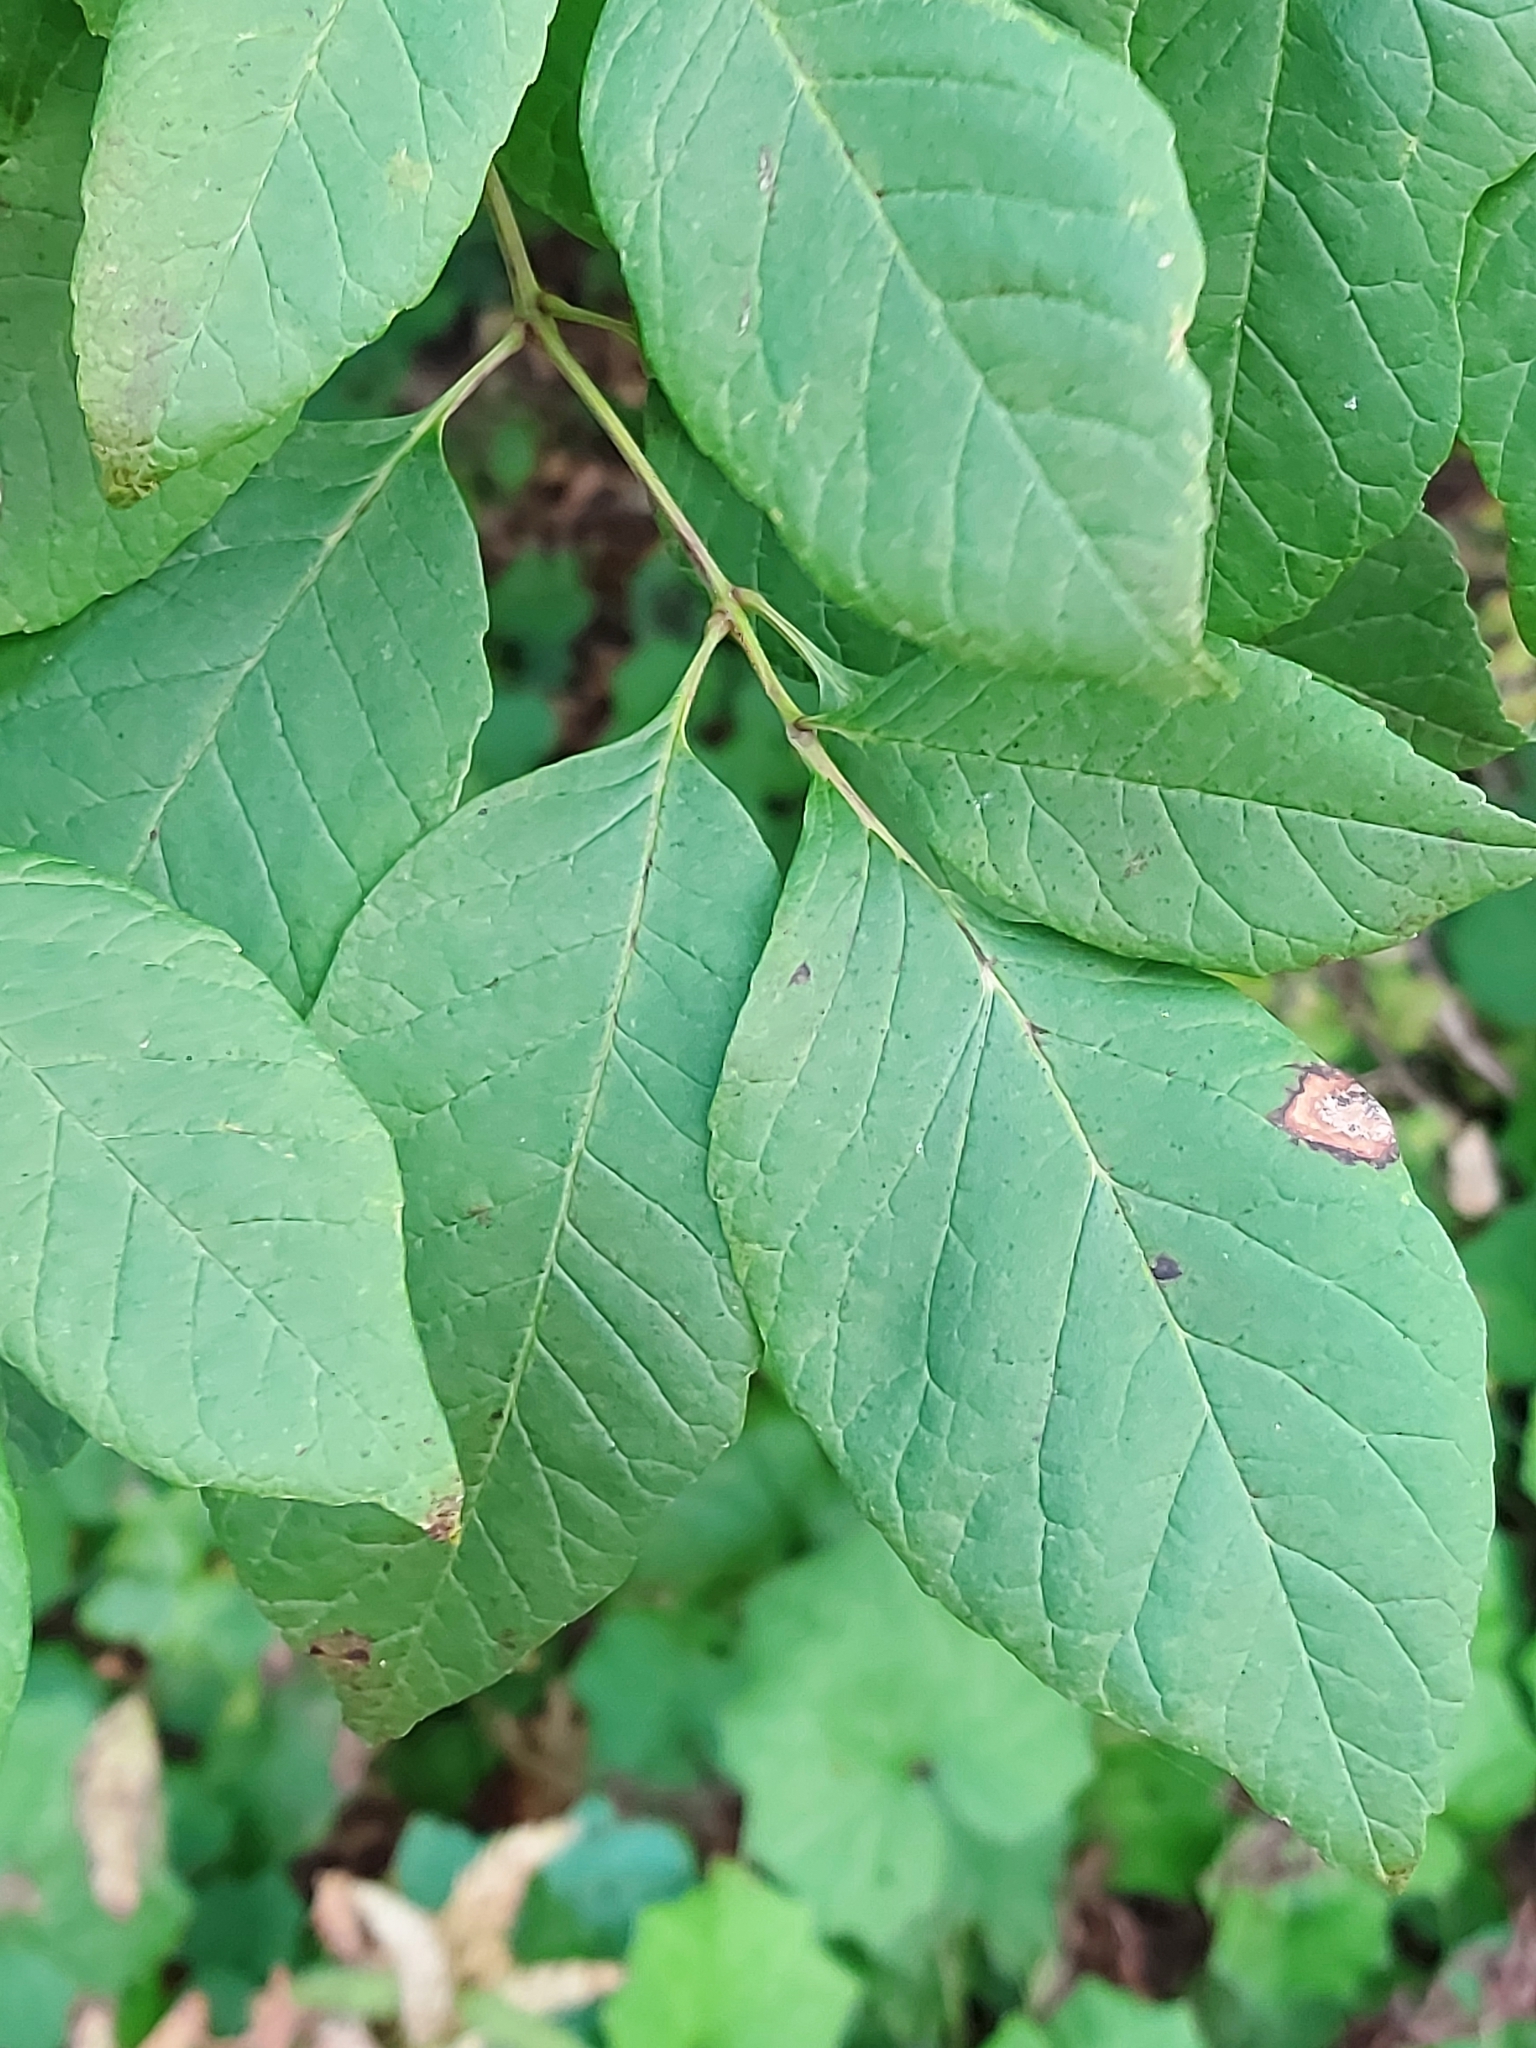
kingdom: Plantae
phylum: Tracheophyta
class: Magnoliopsida
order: Lamiales
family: Oleaceae
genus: Fraxinus
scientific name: Fraxinus americana
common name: White ash
